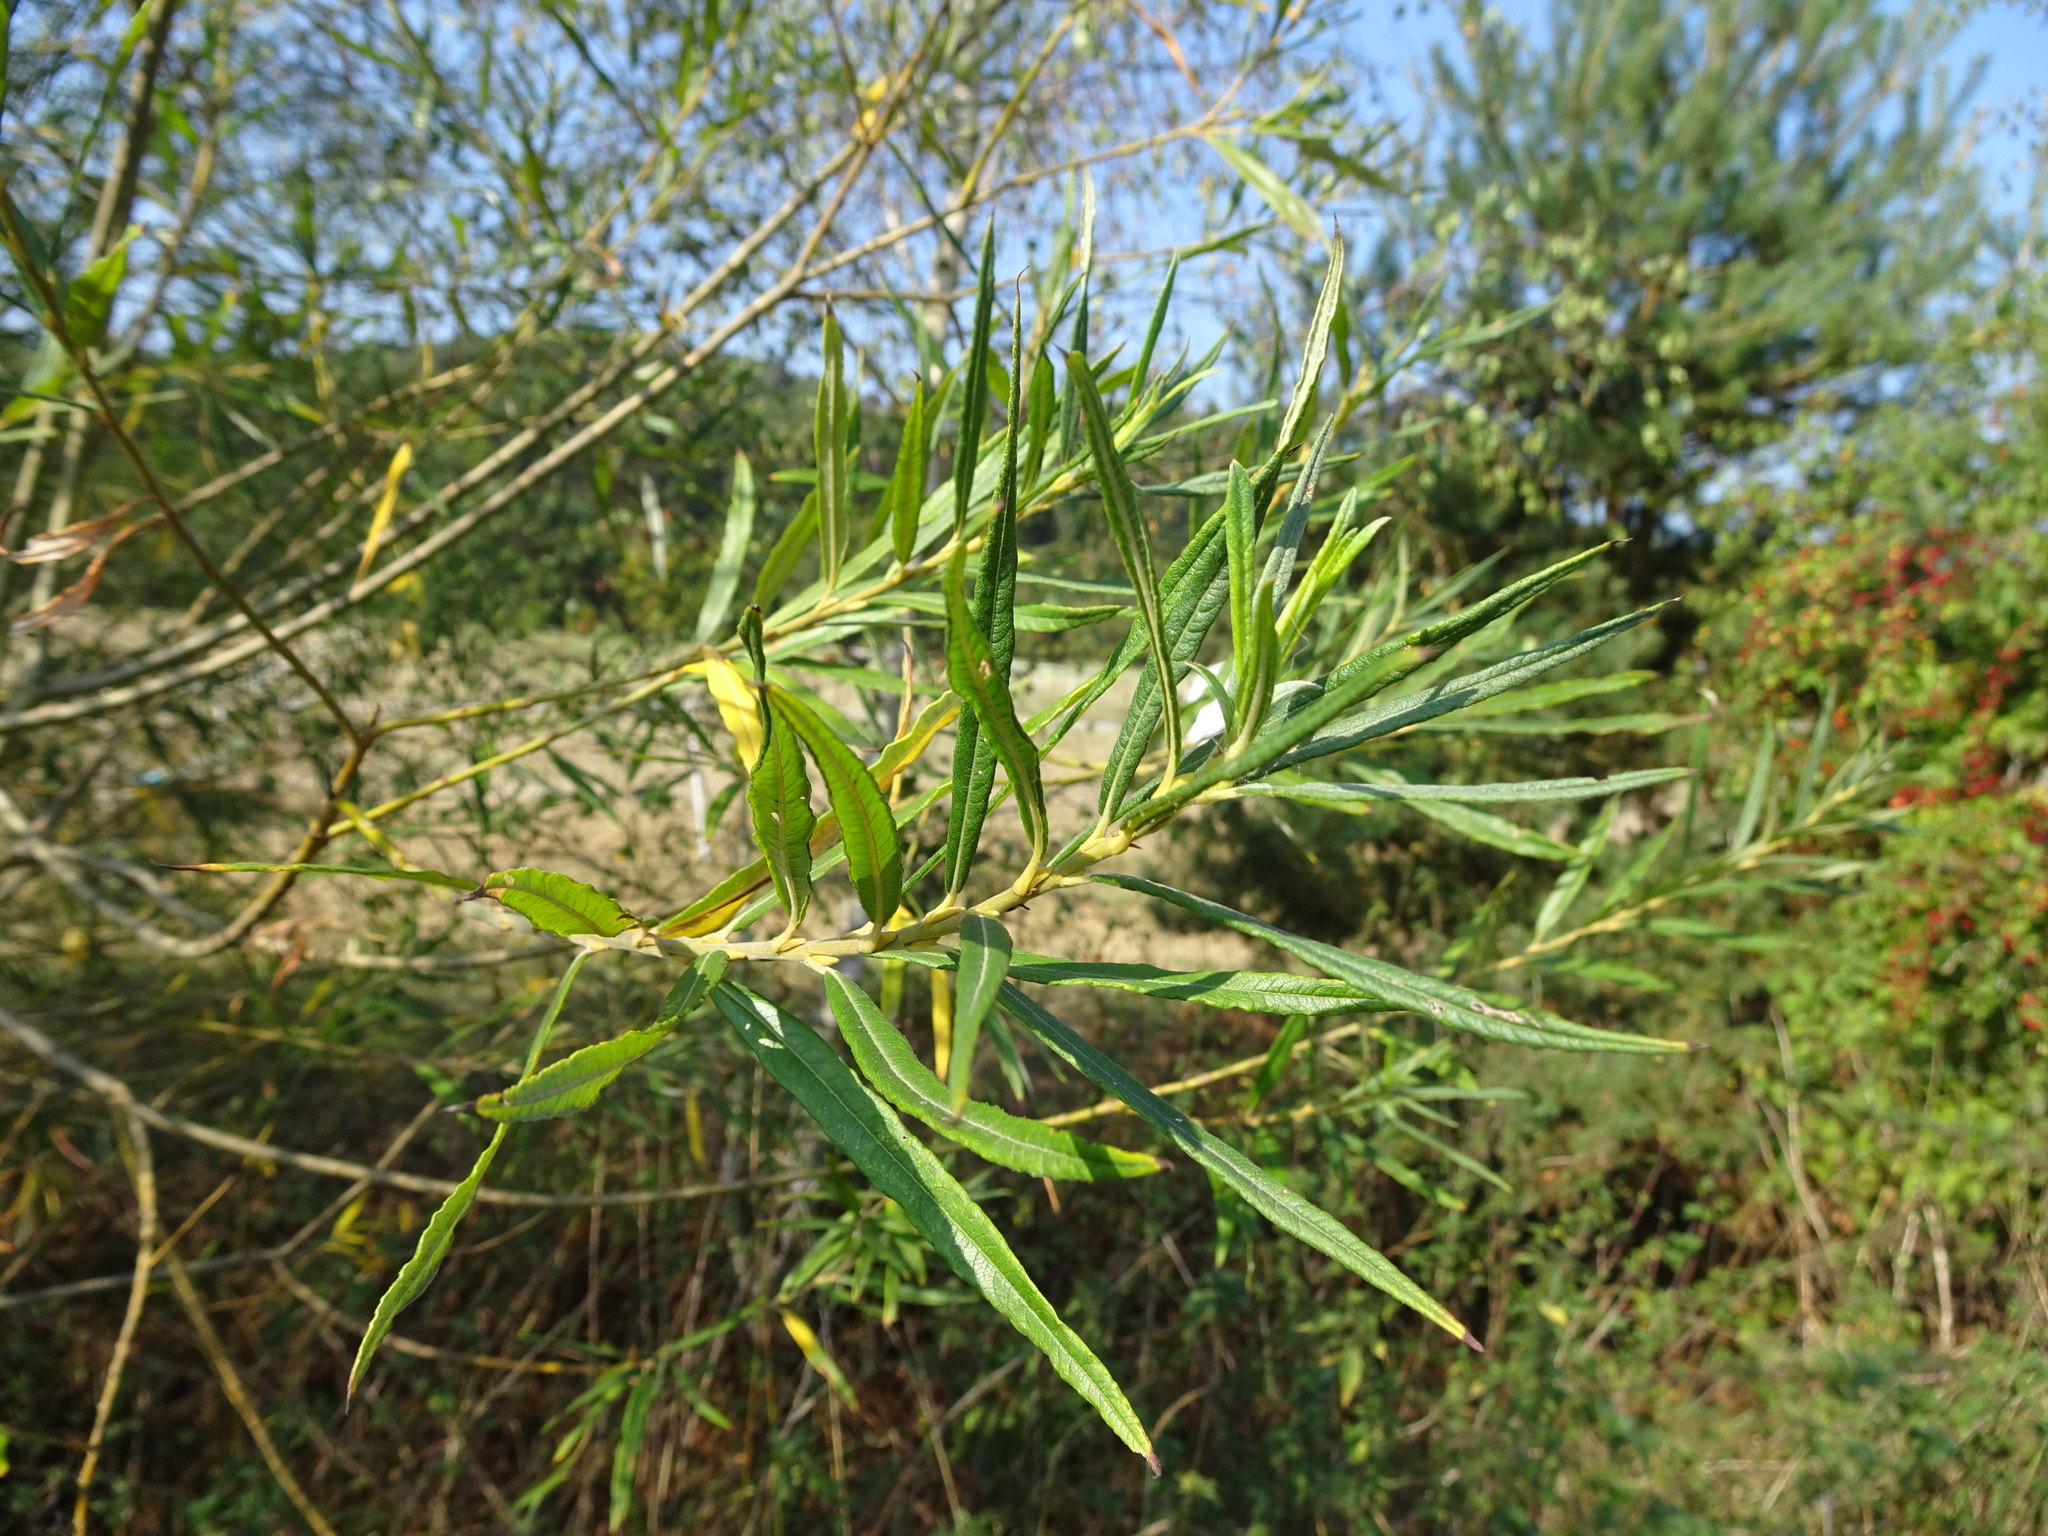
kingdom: Plantae
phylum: Tracheophyta
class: Magnoliopsida
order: Malpighiales
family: Salicaceae
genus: Salix
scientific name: Salix viminalis
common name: Osier
